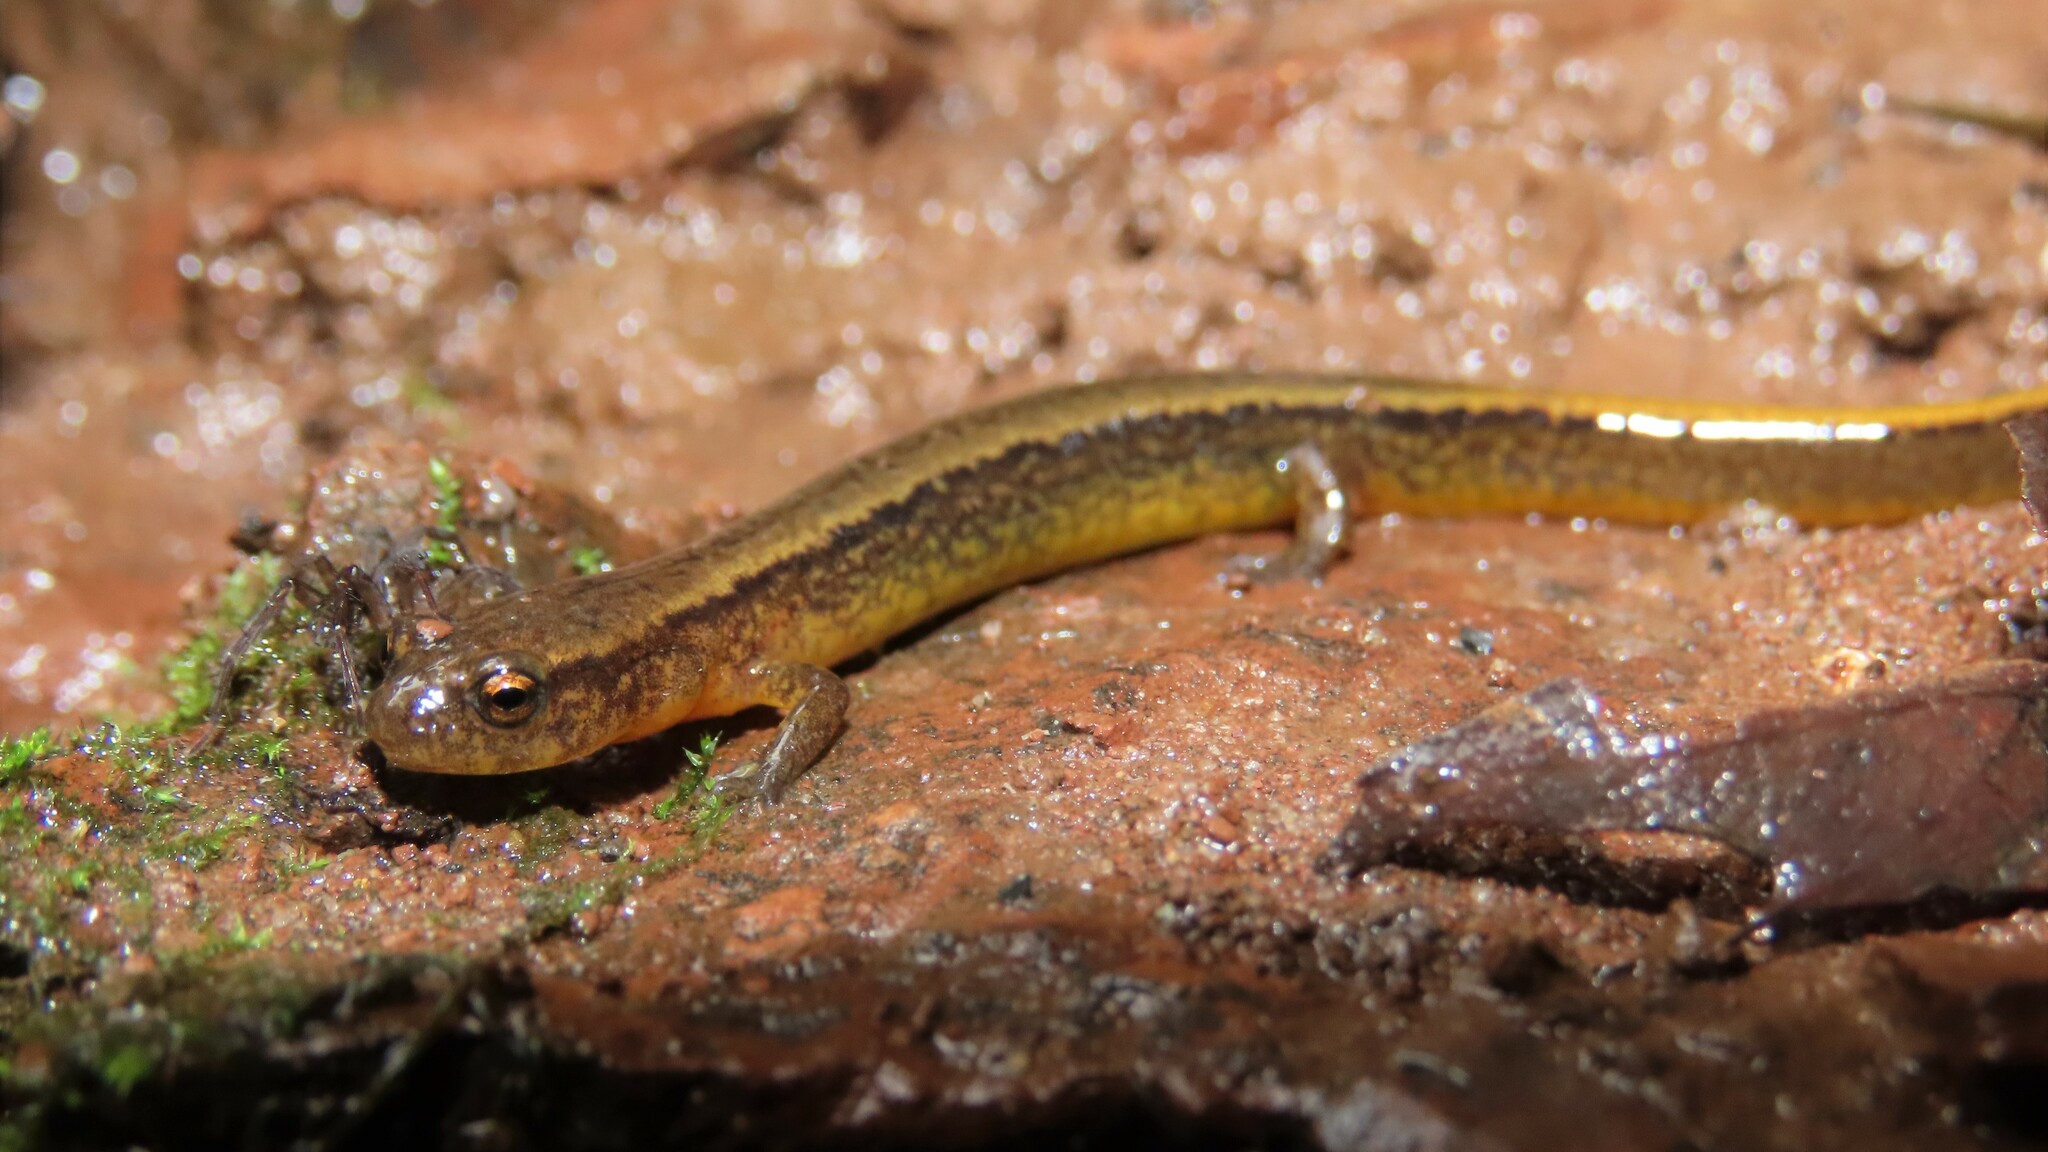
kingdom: Animalia
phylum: Chordata
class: Amphibia
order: Caudata
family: Plethodontidae
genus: Eurycea
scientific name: Eurycea bislineata
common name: Northern two-lined salamander
